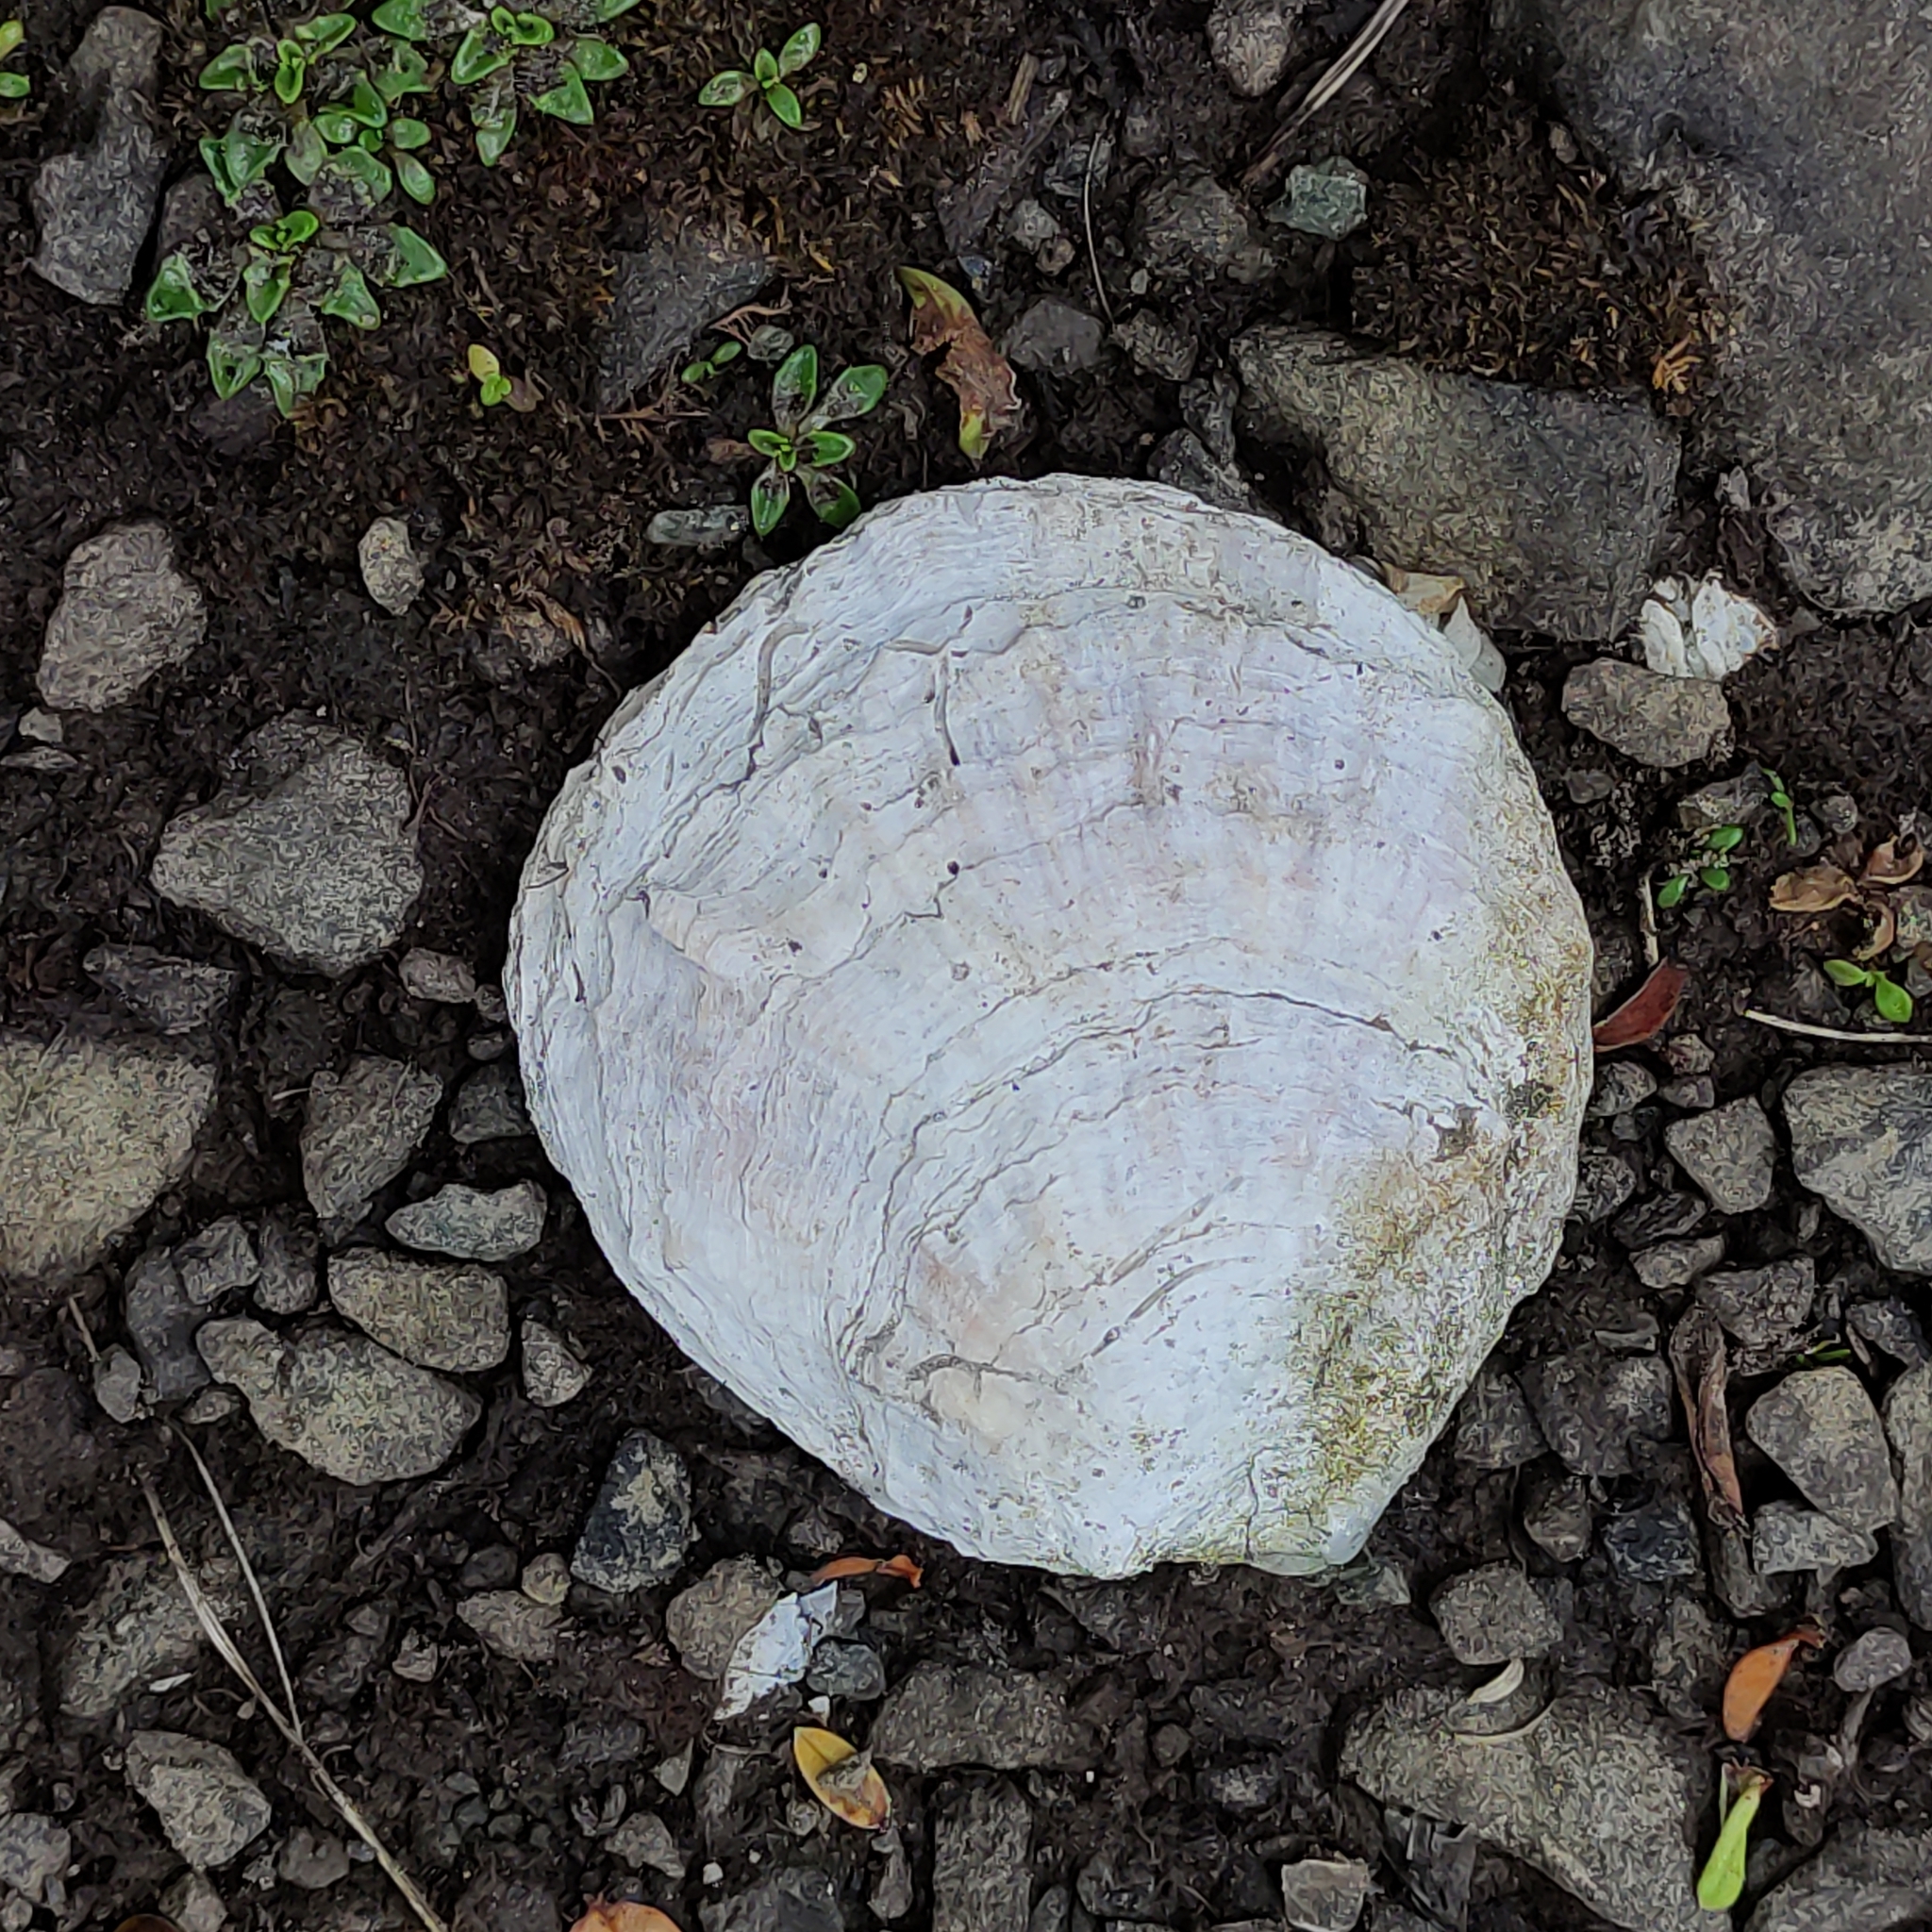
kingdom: Animalia
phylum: Mollusca
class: Bivalvia
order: Ostreida
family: Ostreidae
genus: Ostrea
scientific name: Ostrea chilensis
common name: Chilean oyster
